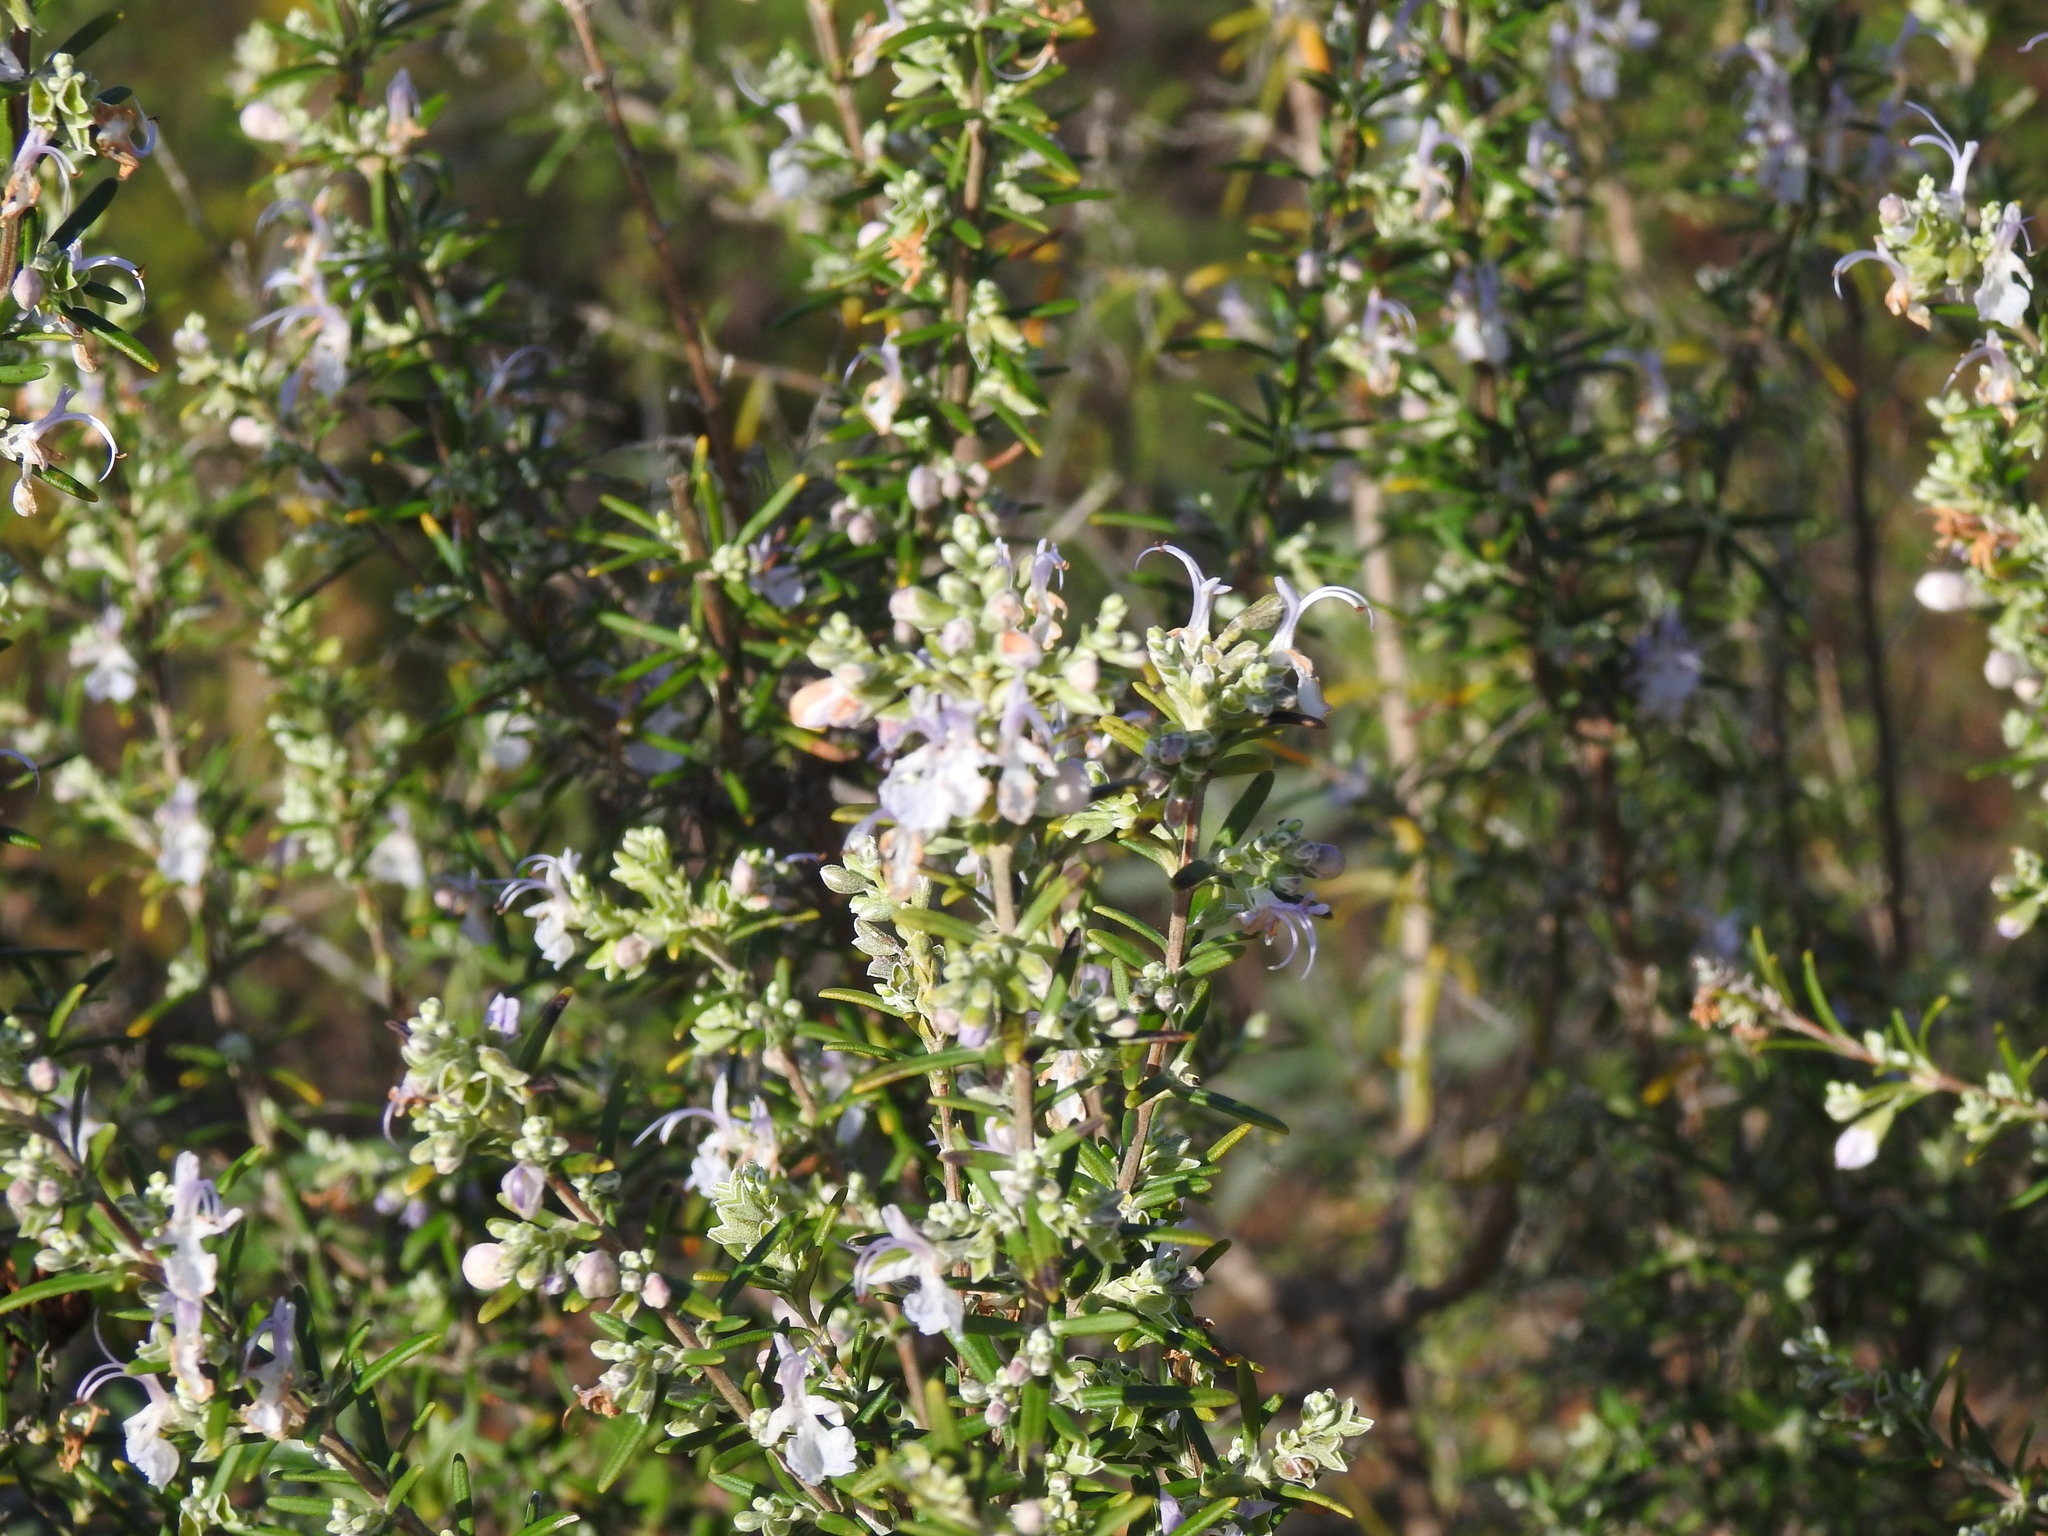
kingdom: Plantae
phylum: Tracheophyta
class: Magnoliopsida
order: Lamiales
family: Lamiaceae
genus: Salvia
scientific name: Salvia rosmarinus
